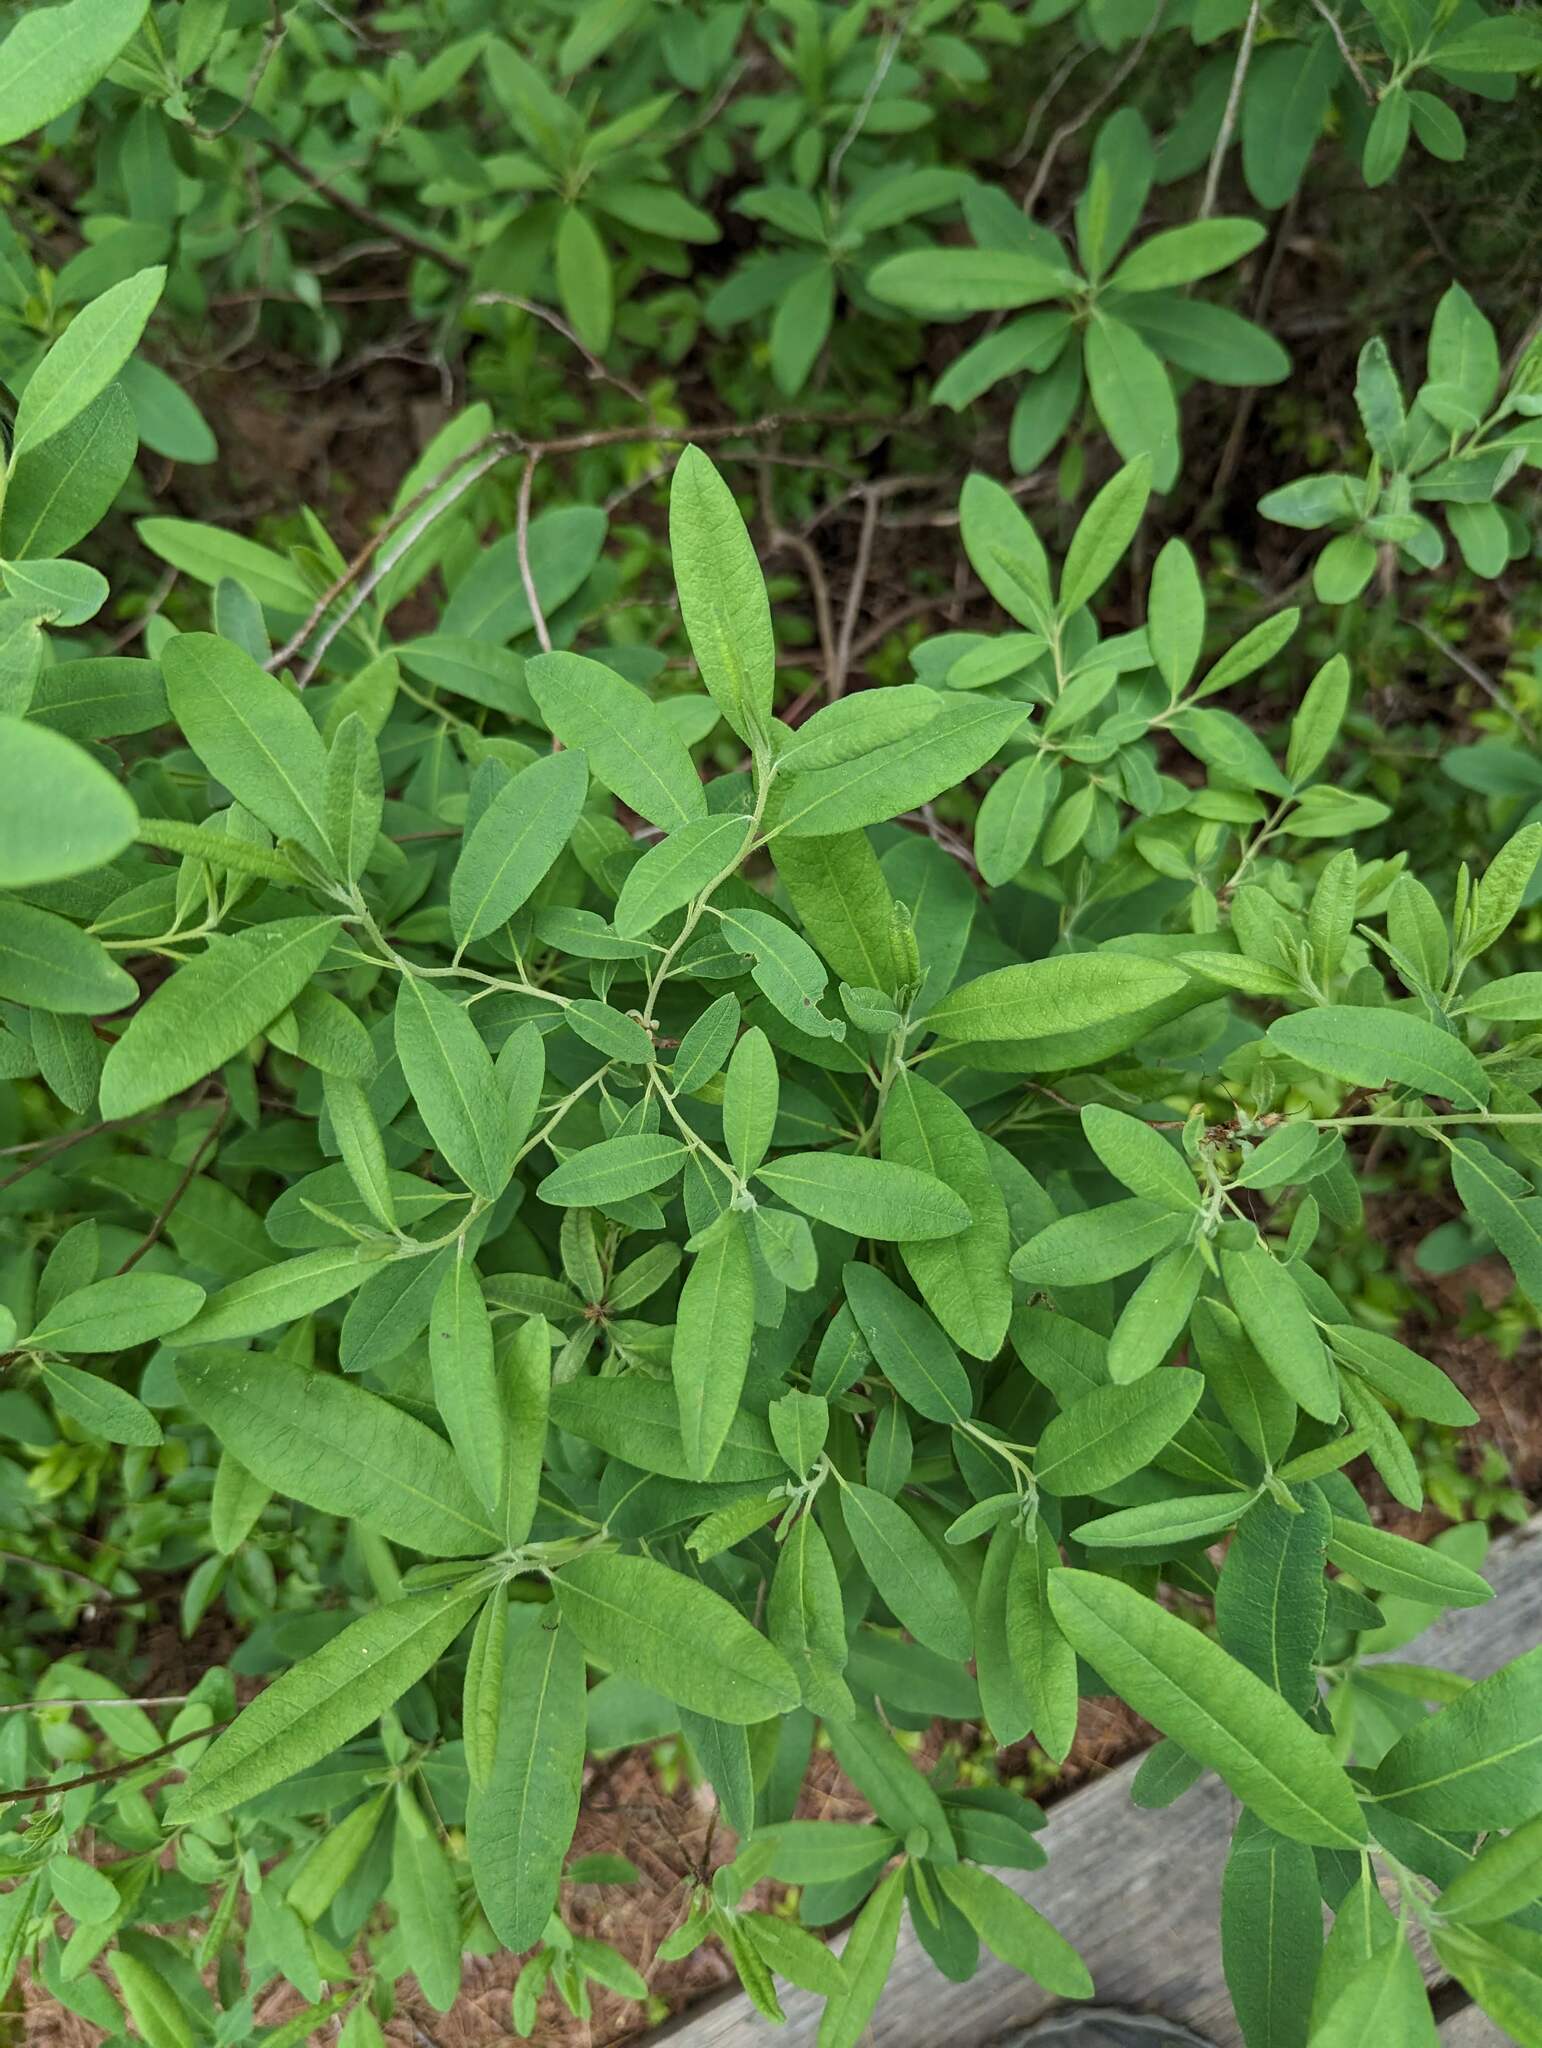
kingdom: Plantae
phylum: Tracheophyta
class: Magnoliopsida
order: Ericales
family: Ericaceae
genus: Rhododendron
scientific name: Rhododendron canadense
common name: Rhodora
